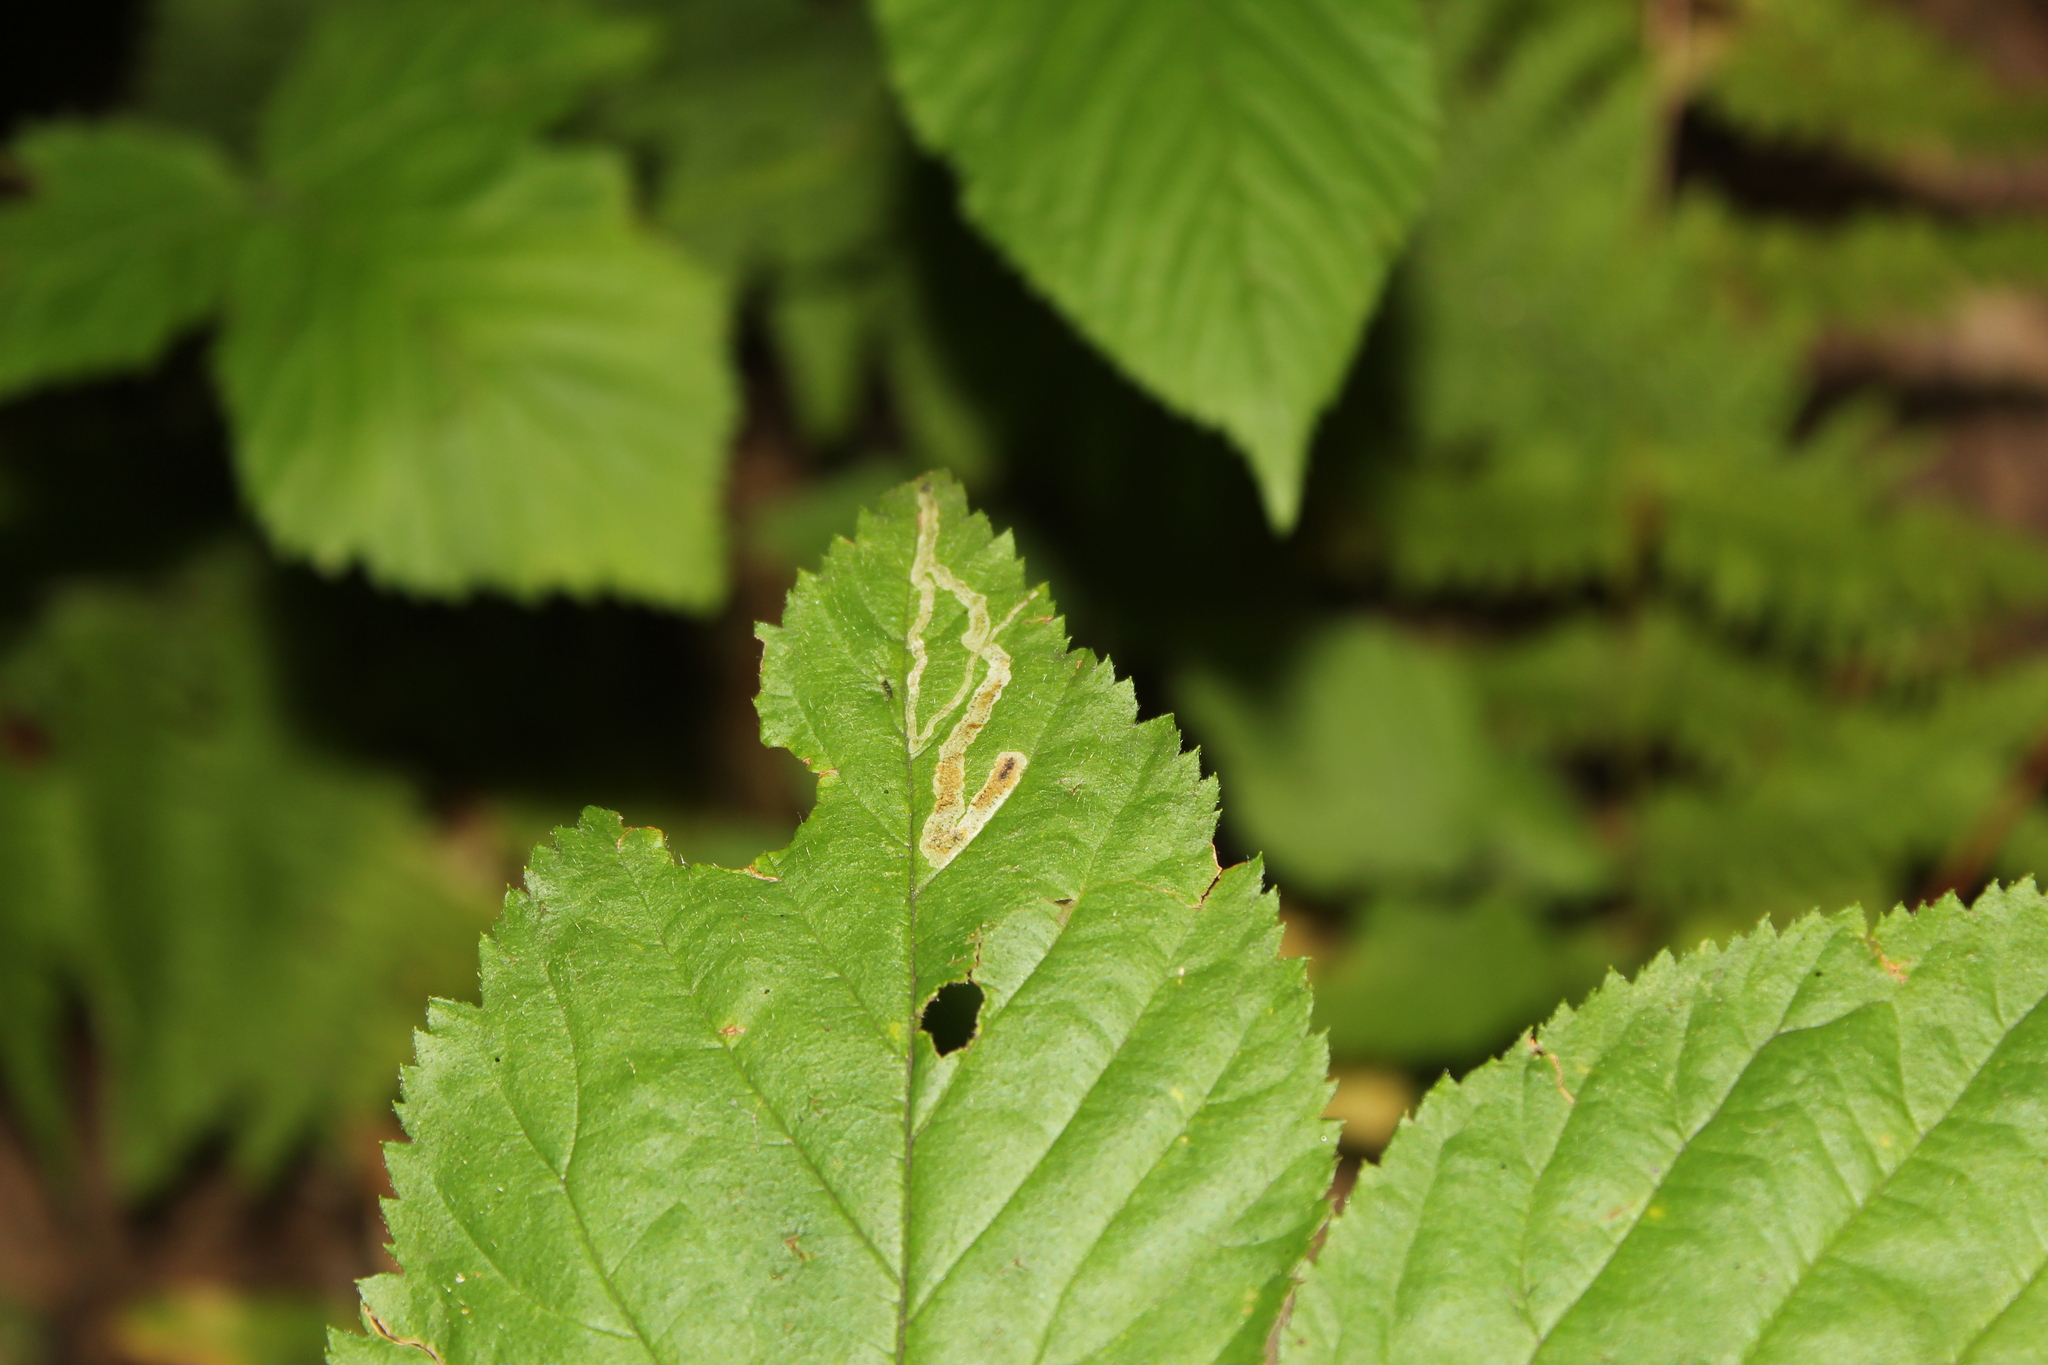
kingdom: Animalia
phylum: Arthropoda
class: Insecta
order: Diptera
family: Agromyzidae
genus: Agromyza
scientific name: Agromyza vockerothi
